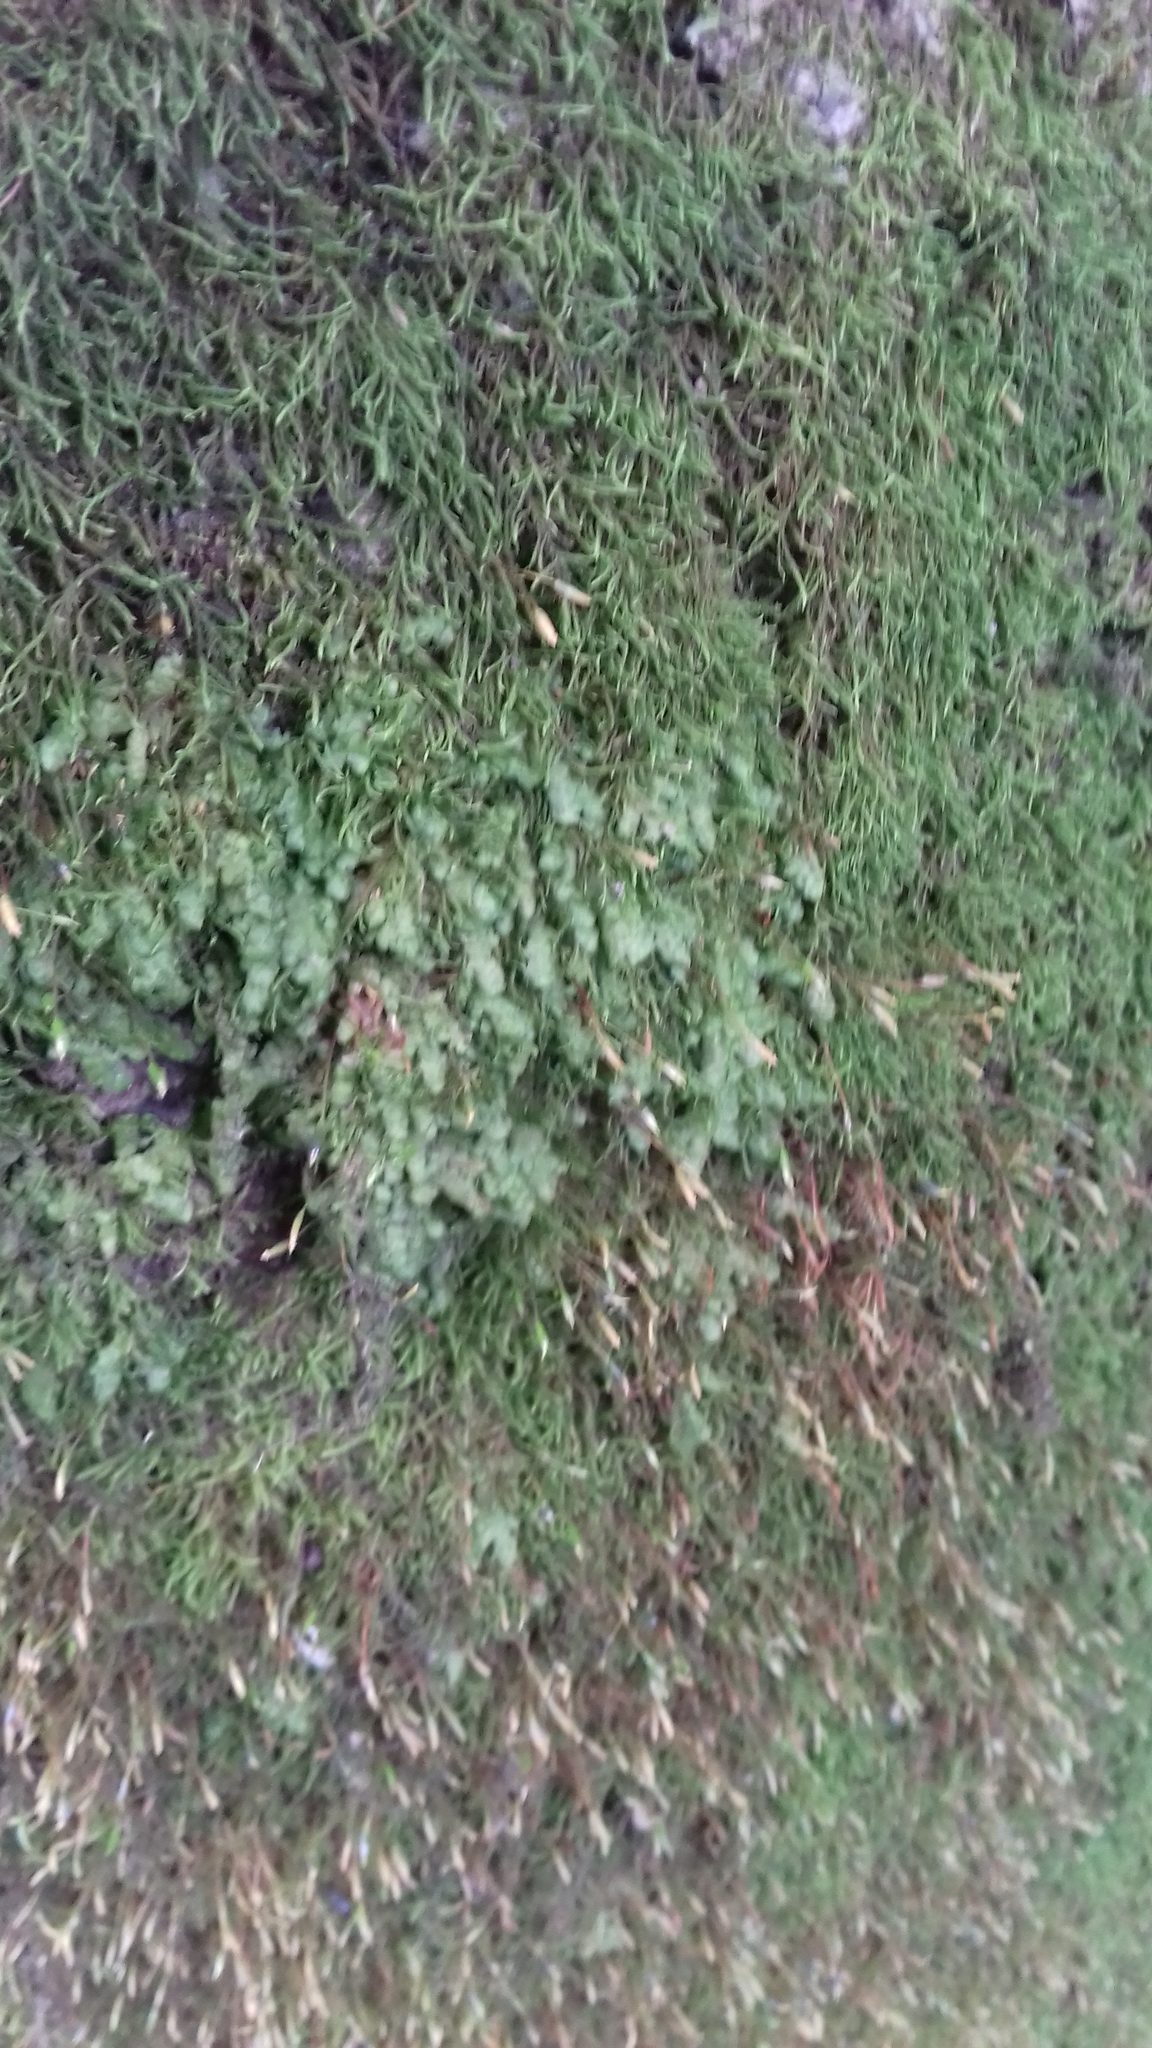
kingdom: Plantae
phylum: Marchantiophyta
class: Jungermanniopsida
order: Porellales
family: Radulaceae
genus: Radula
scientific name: Radula complanata
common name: Flat-leaved scalewort
